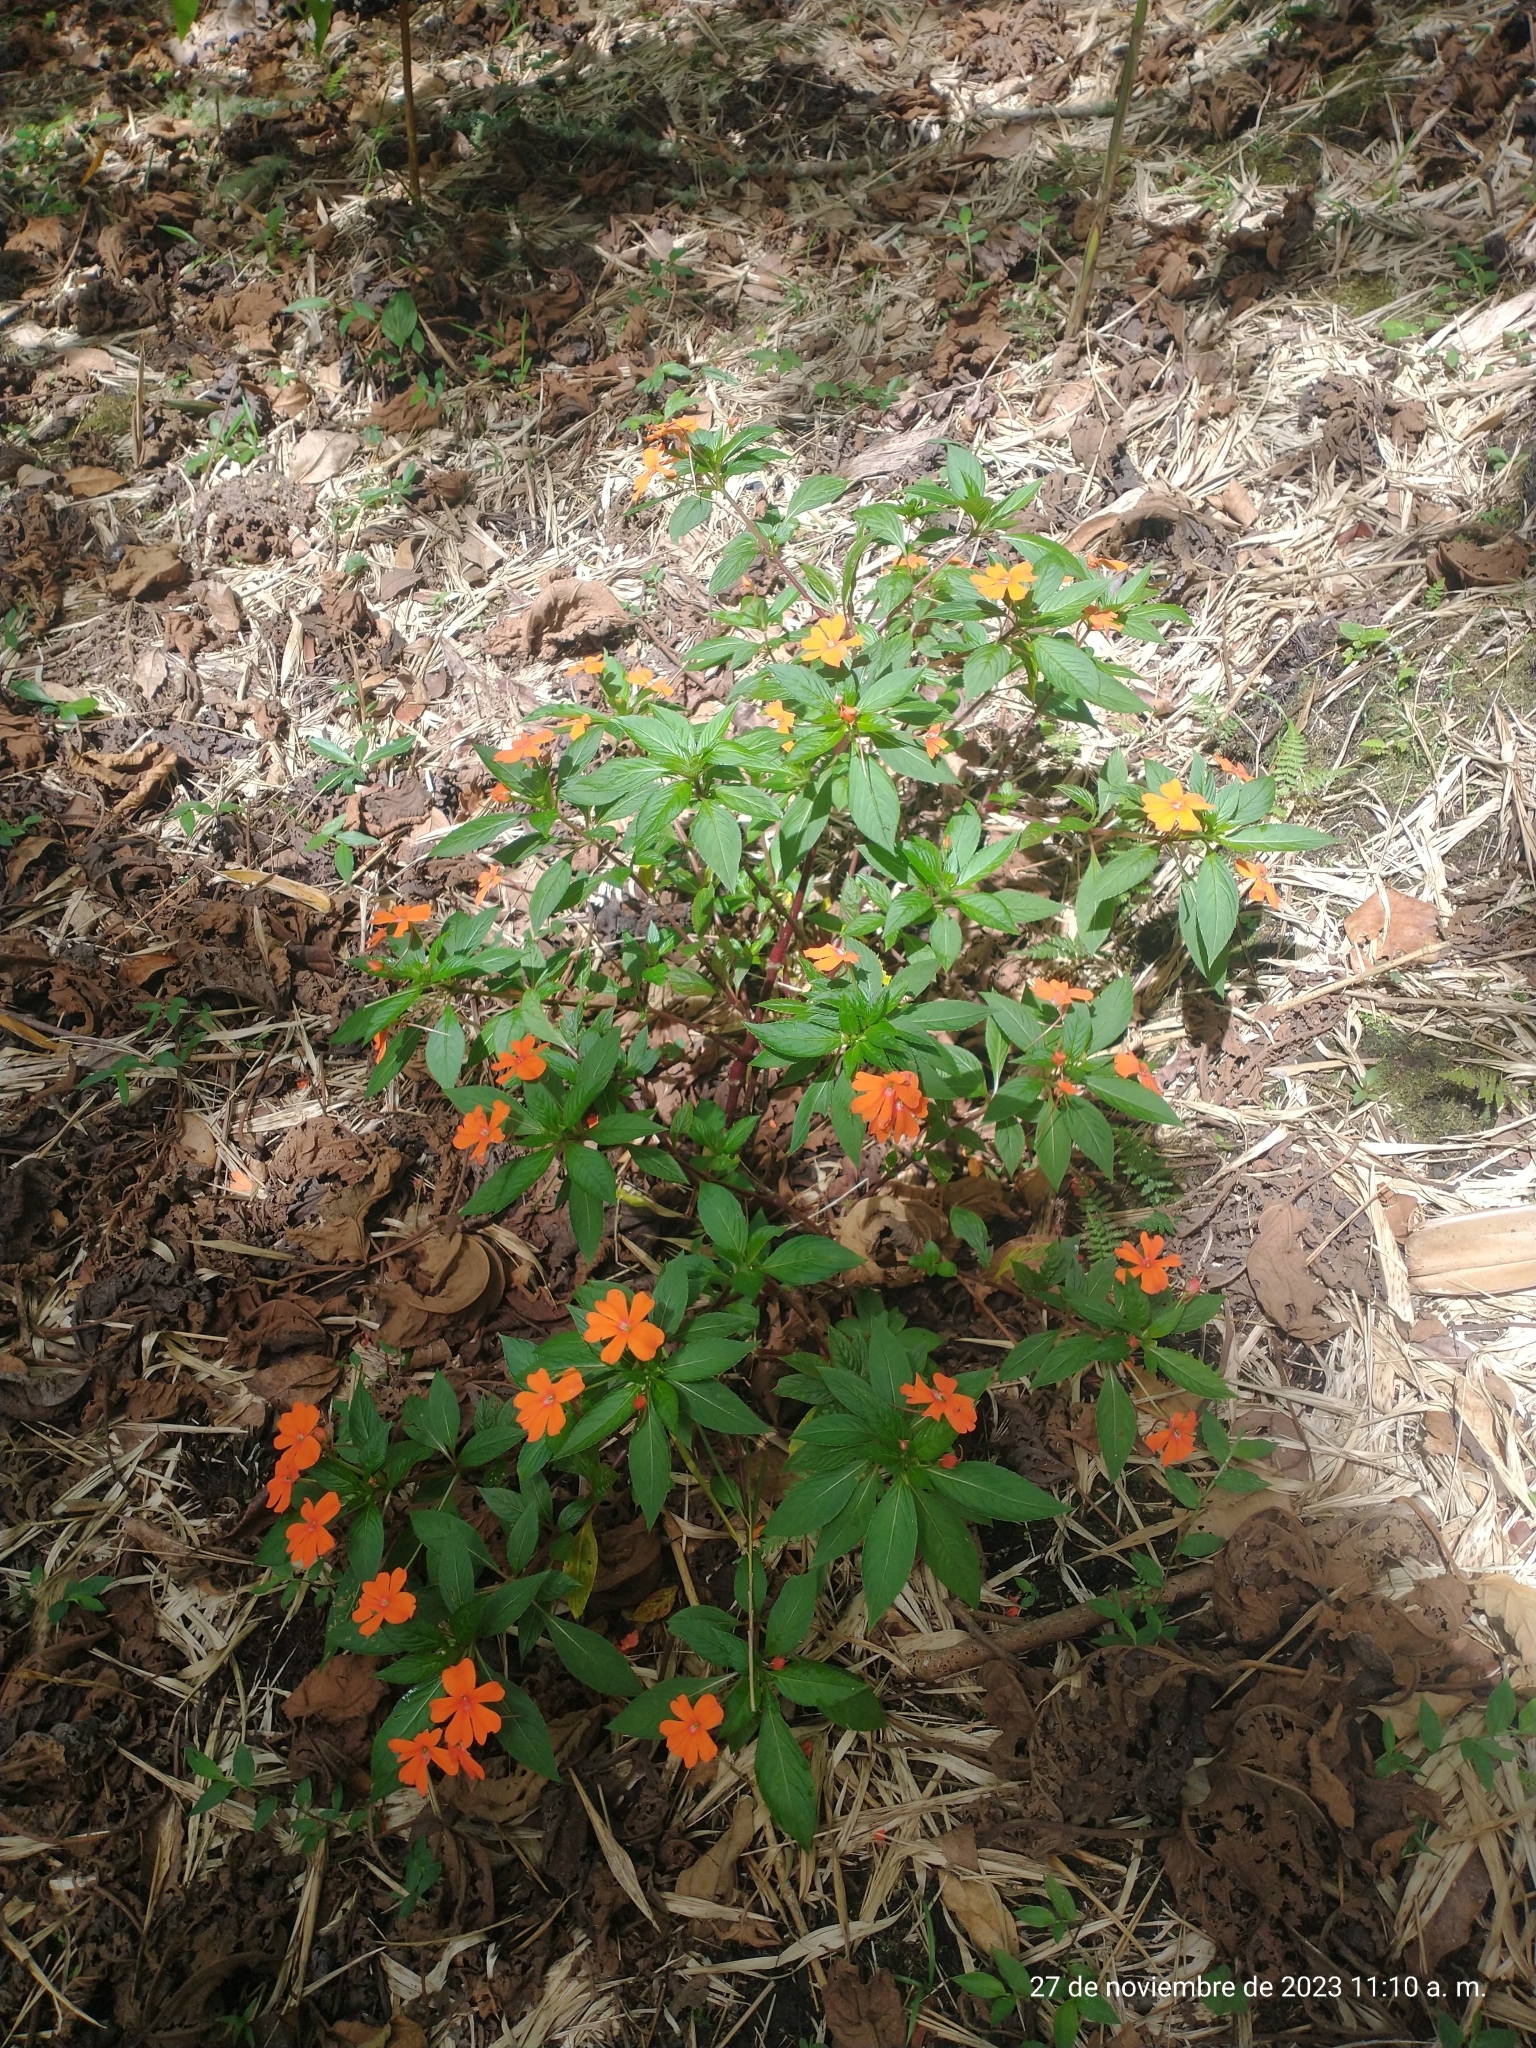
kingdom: Plantae
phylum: Tracheophyta
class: Magnoliopsida
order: Ericales
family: Balsaminaceae
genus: Impatiens
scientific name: Impatiens hawkeri
